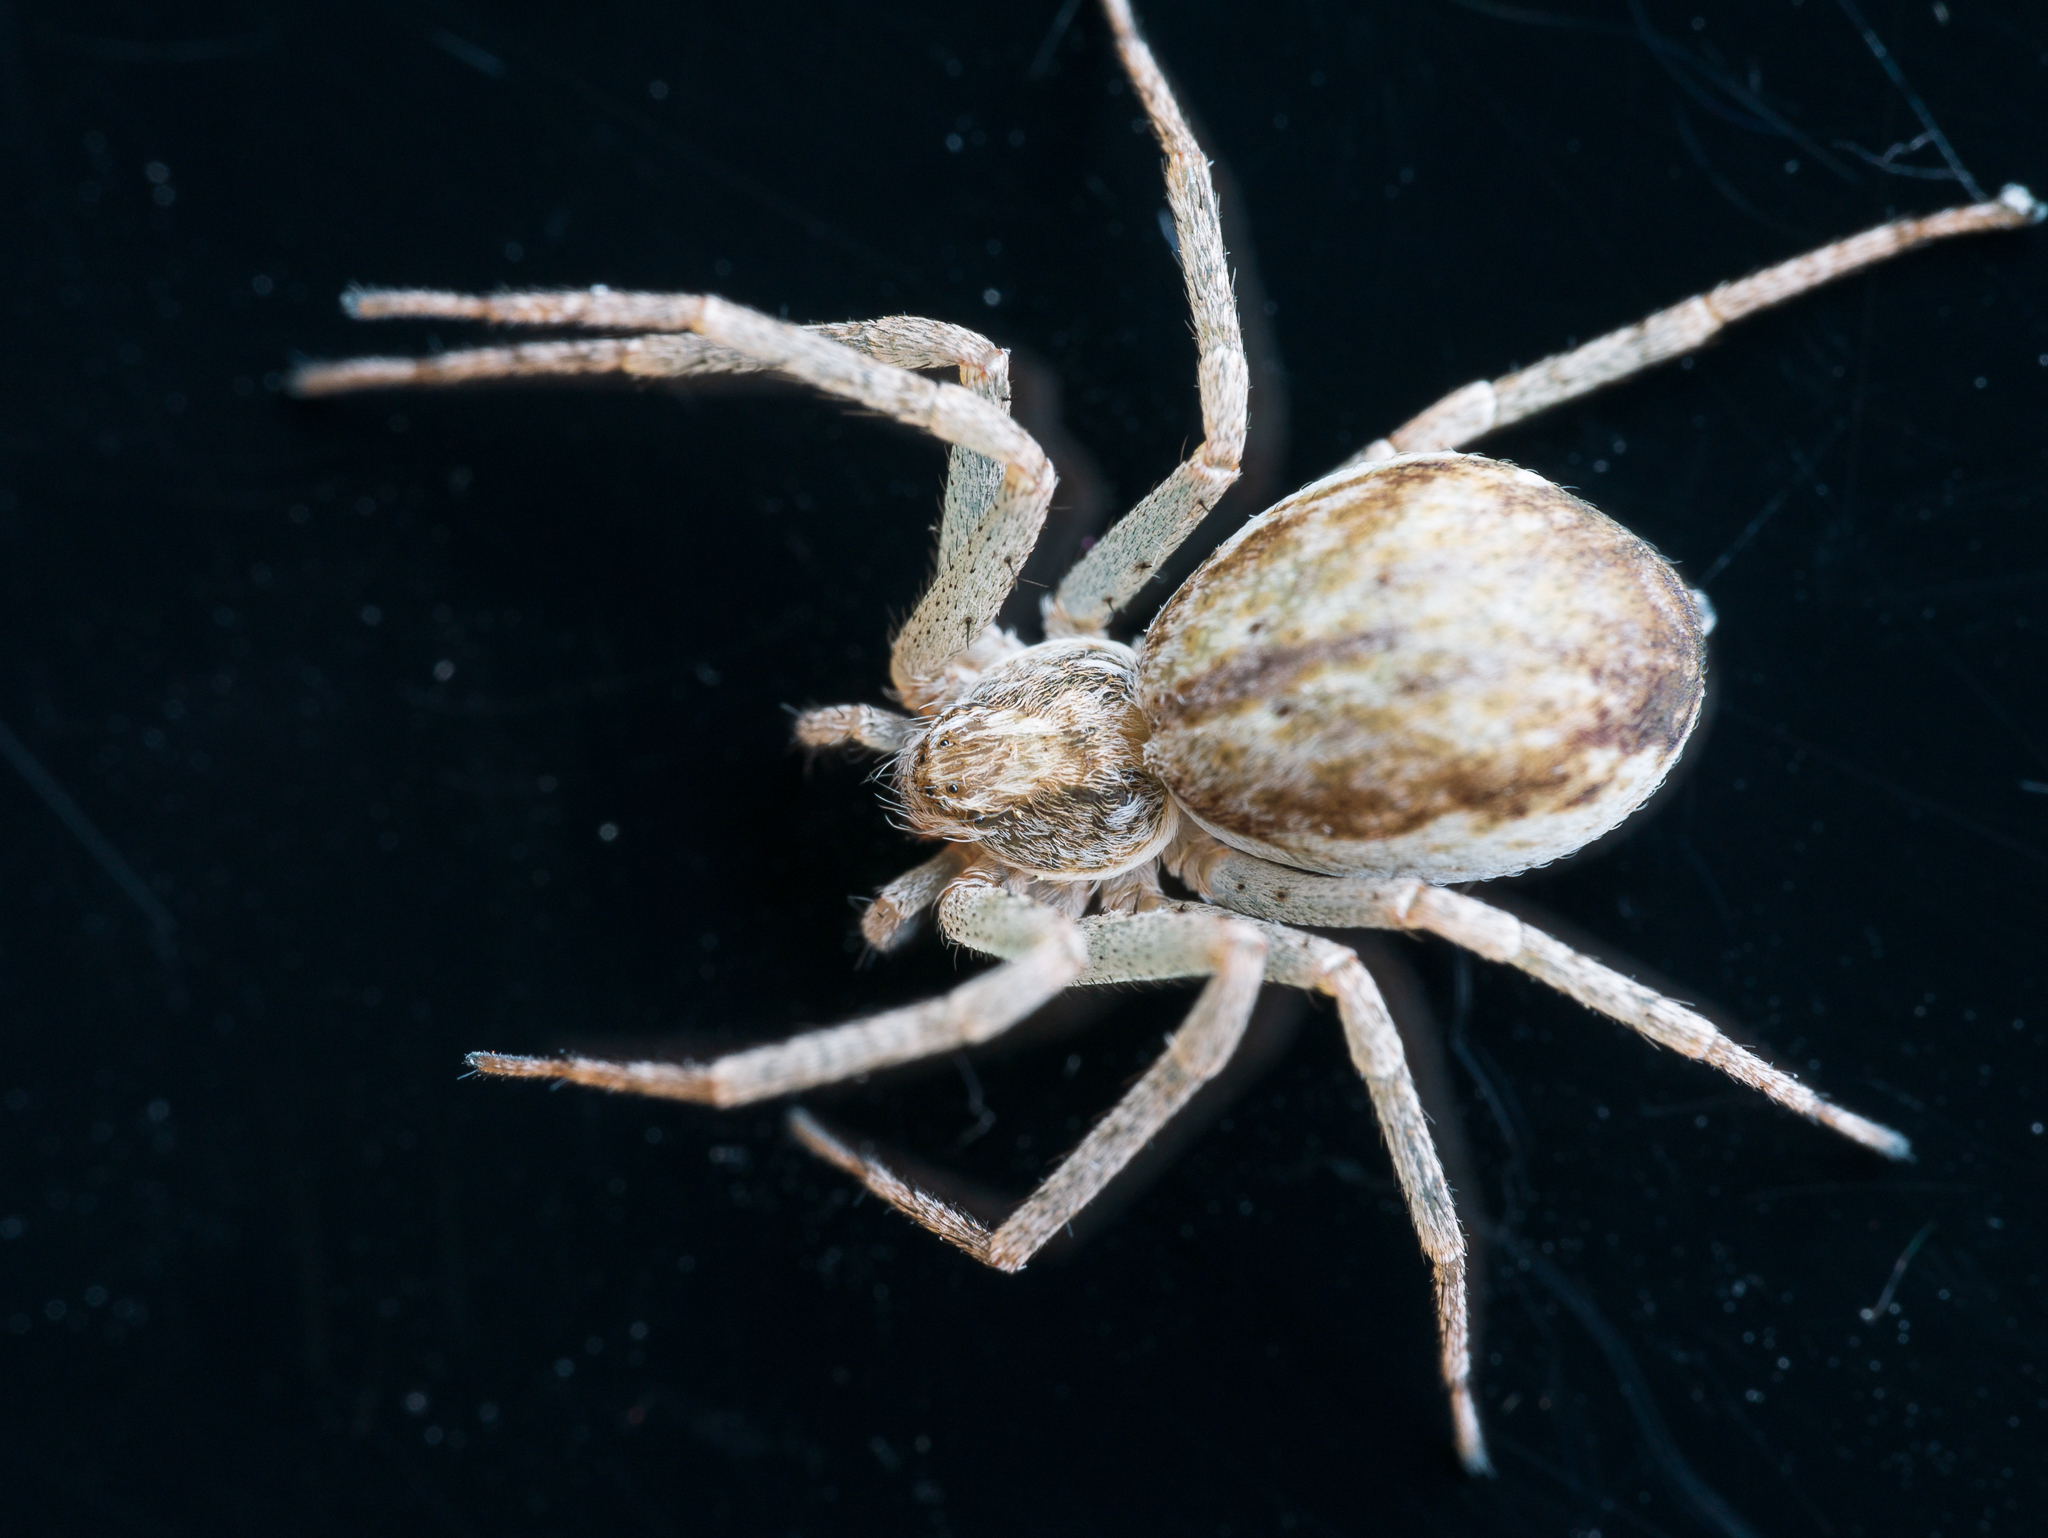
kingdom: Animalia
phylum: Arthropoda
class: Arachnida
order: Araneae
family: Philodromidae
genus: Philodromus
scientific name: Philodromus dispar
